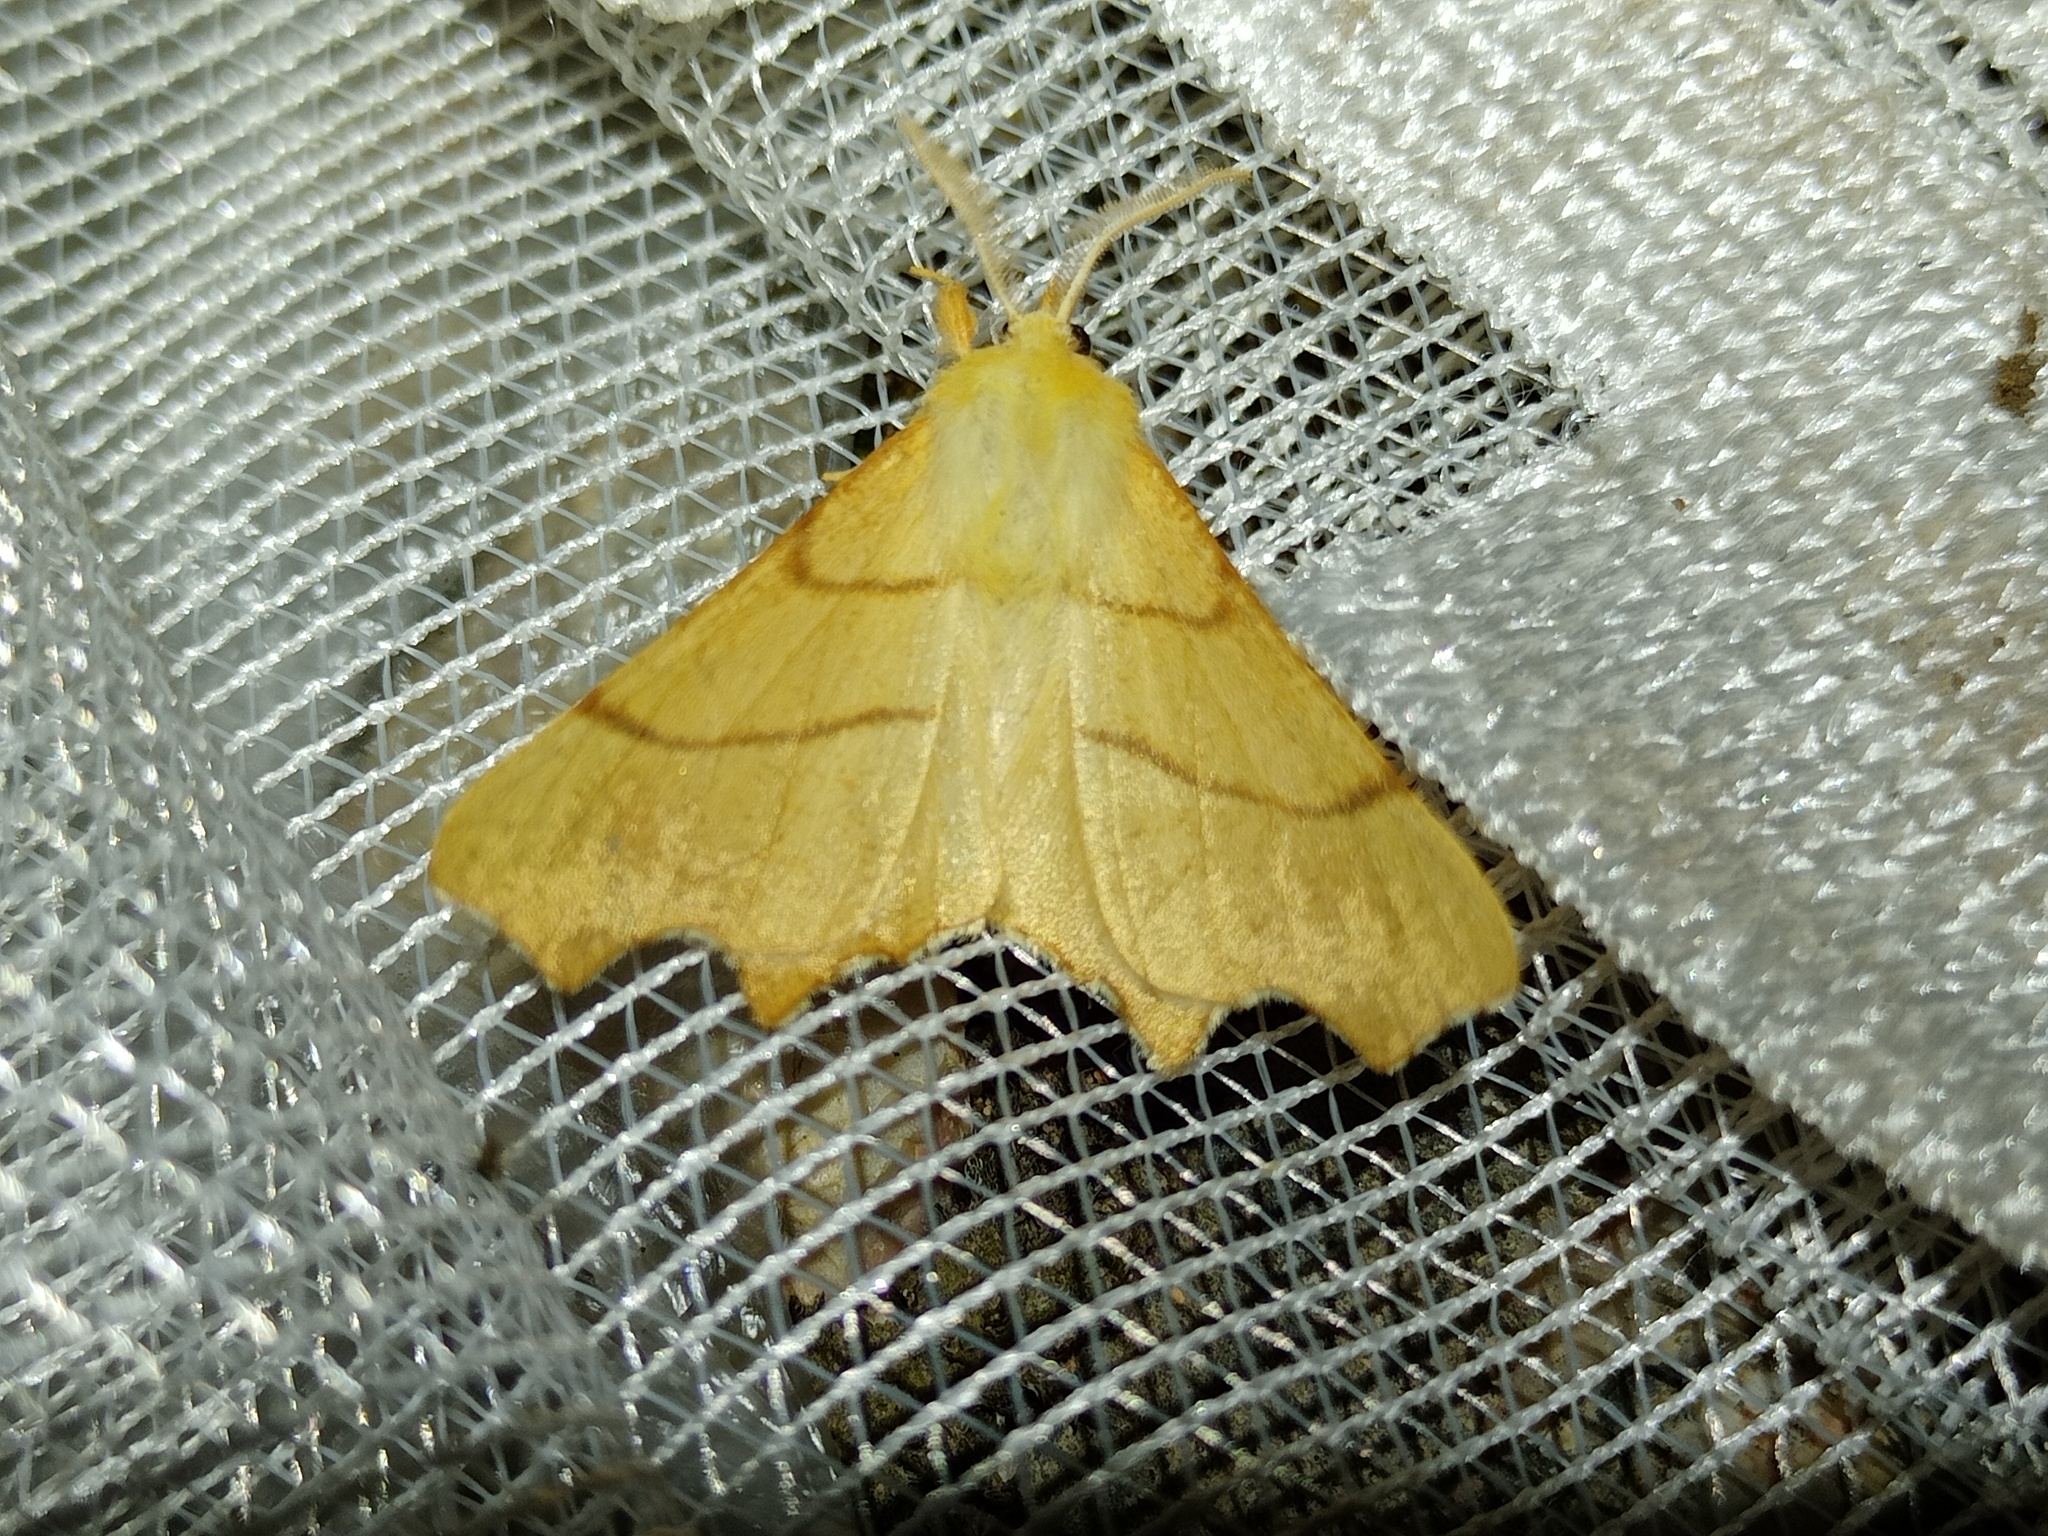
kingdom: Animalia
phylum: Arthropoda
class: Insecta
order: Lepidoptera
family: Geometridae
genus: Ennomos
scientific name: Ennomos erosaria
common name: September thorn
